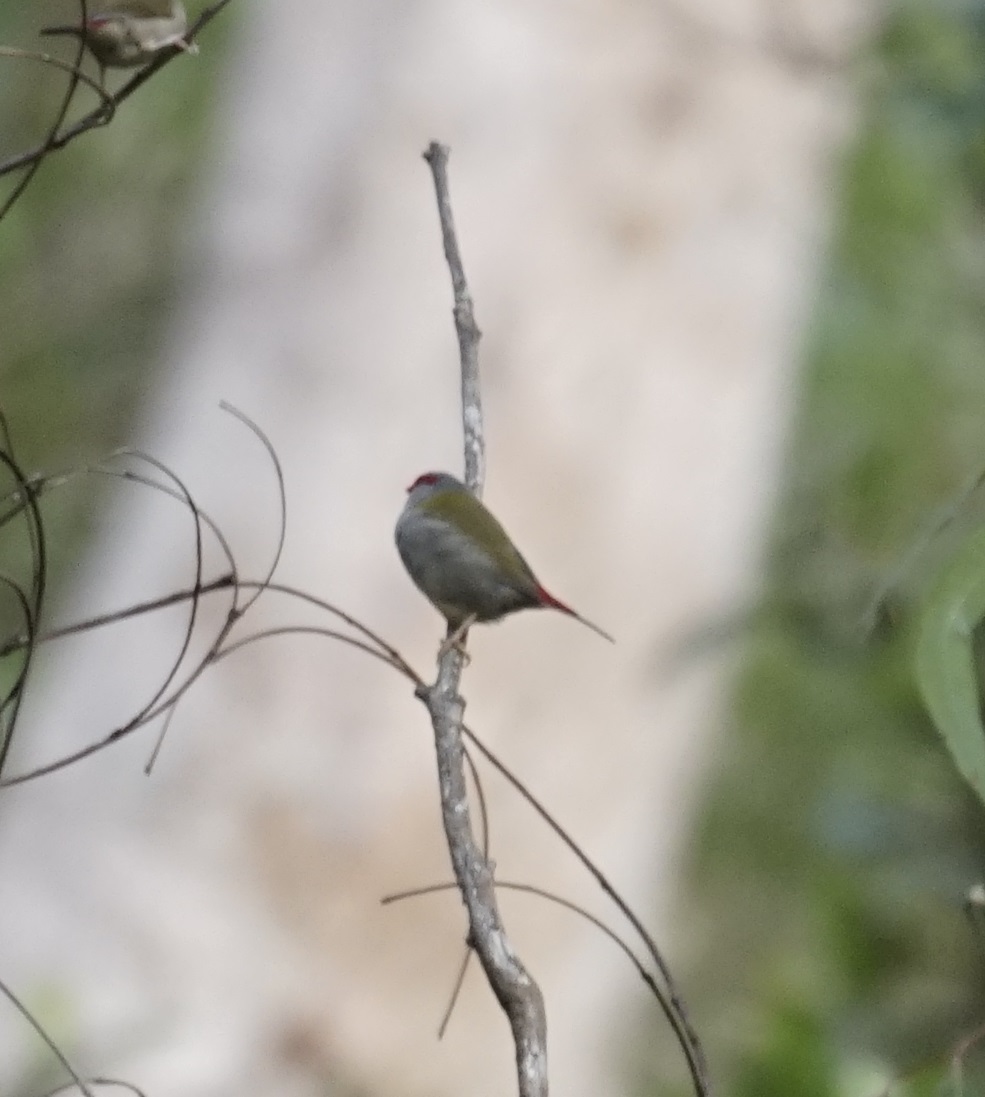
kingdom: Animalia
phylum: Chordata
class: Aves
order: Passeriformes
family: Estrildidae
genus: Neochmia
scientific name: Neochmia temporalis
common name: Red-browed finch
